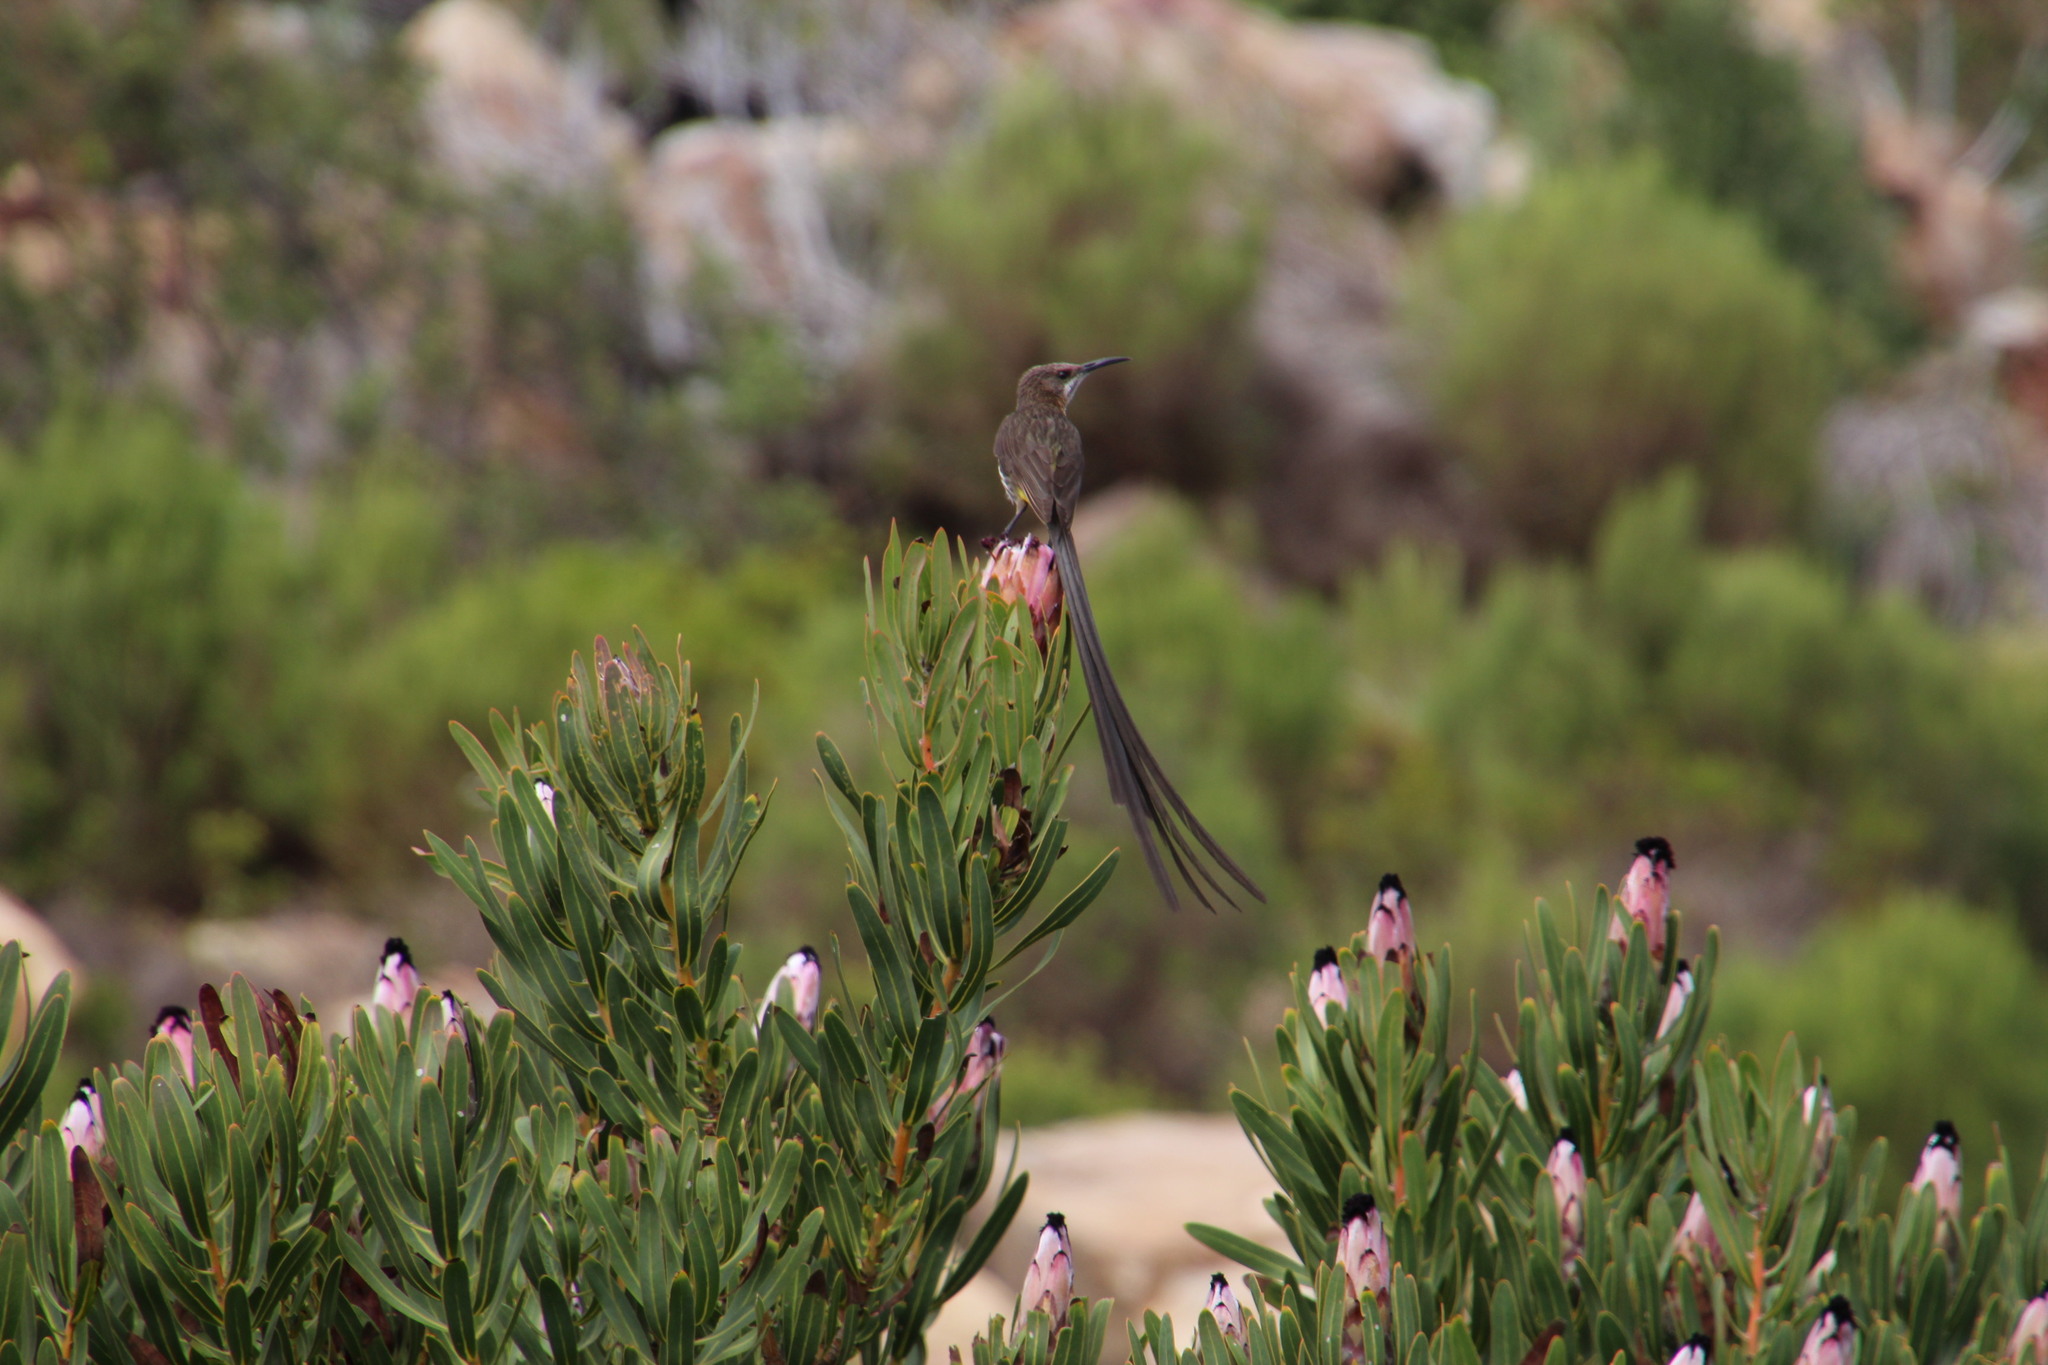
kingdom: Plantae
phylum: Tracheophyta
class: Magnoliopsida
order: Proteales
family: Proteaceae
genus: Protea
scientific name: Protea
